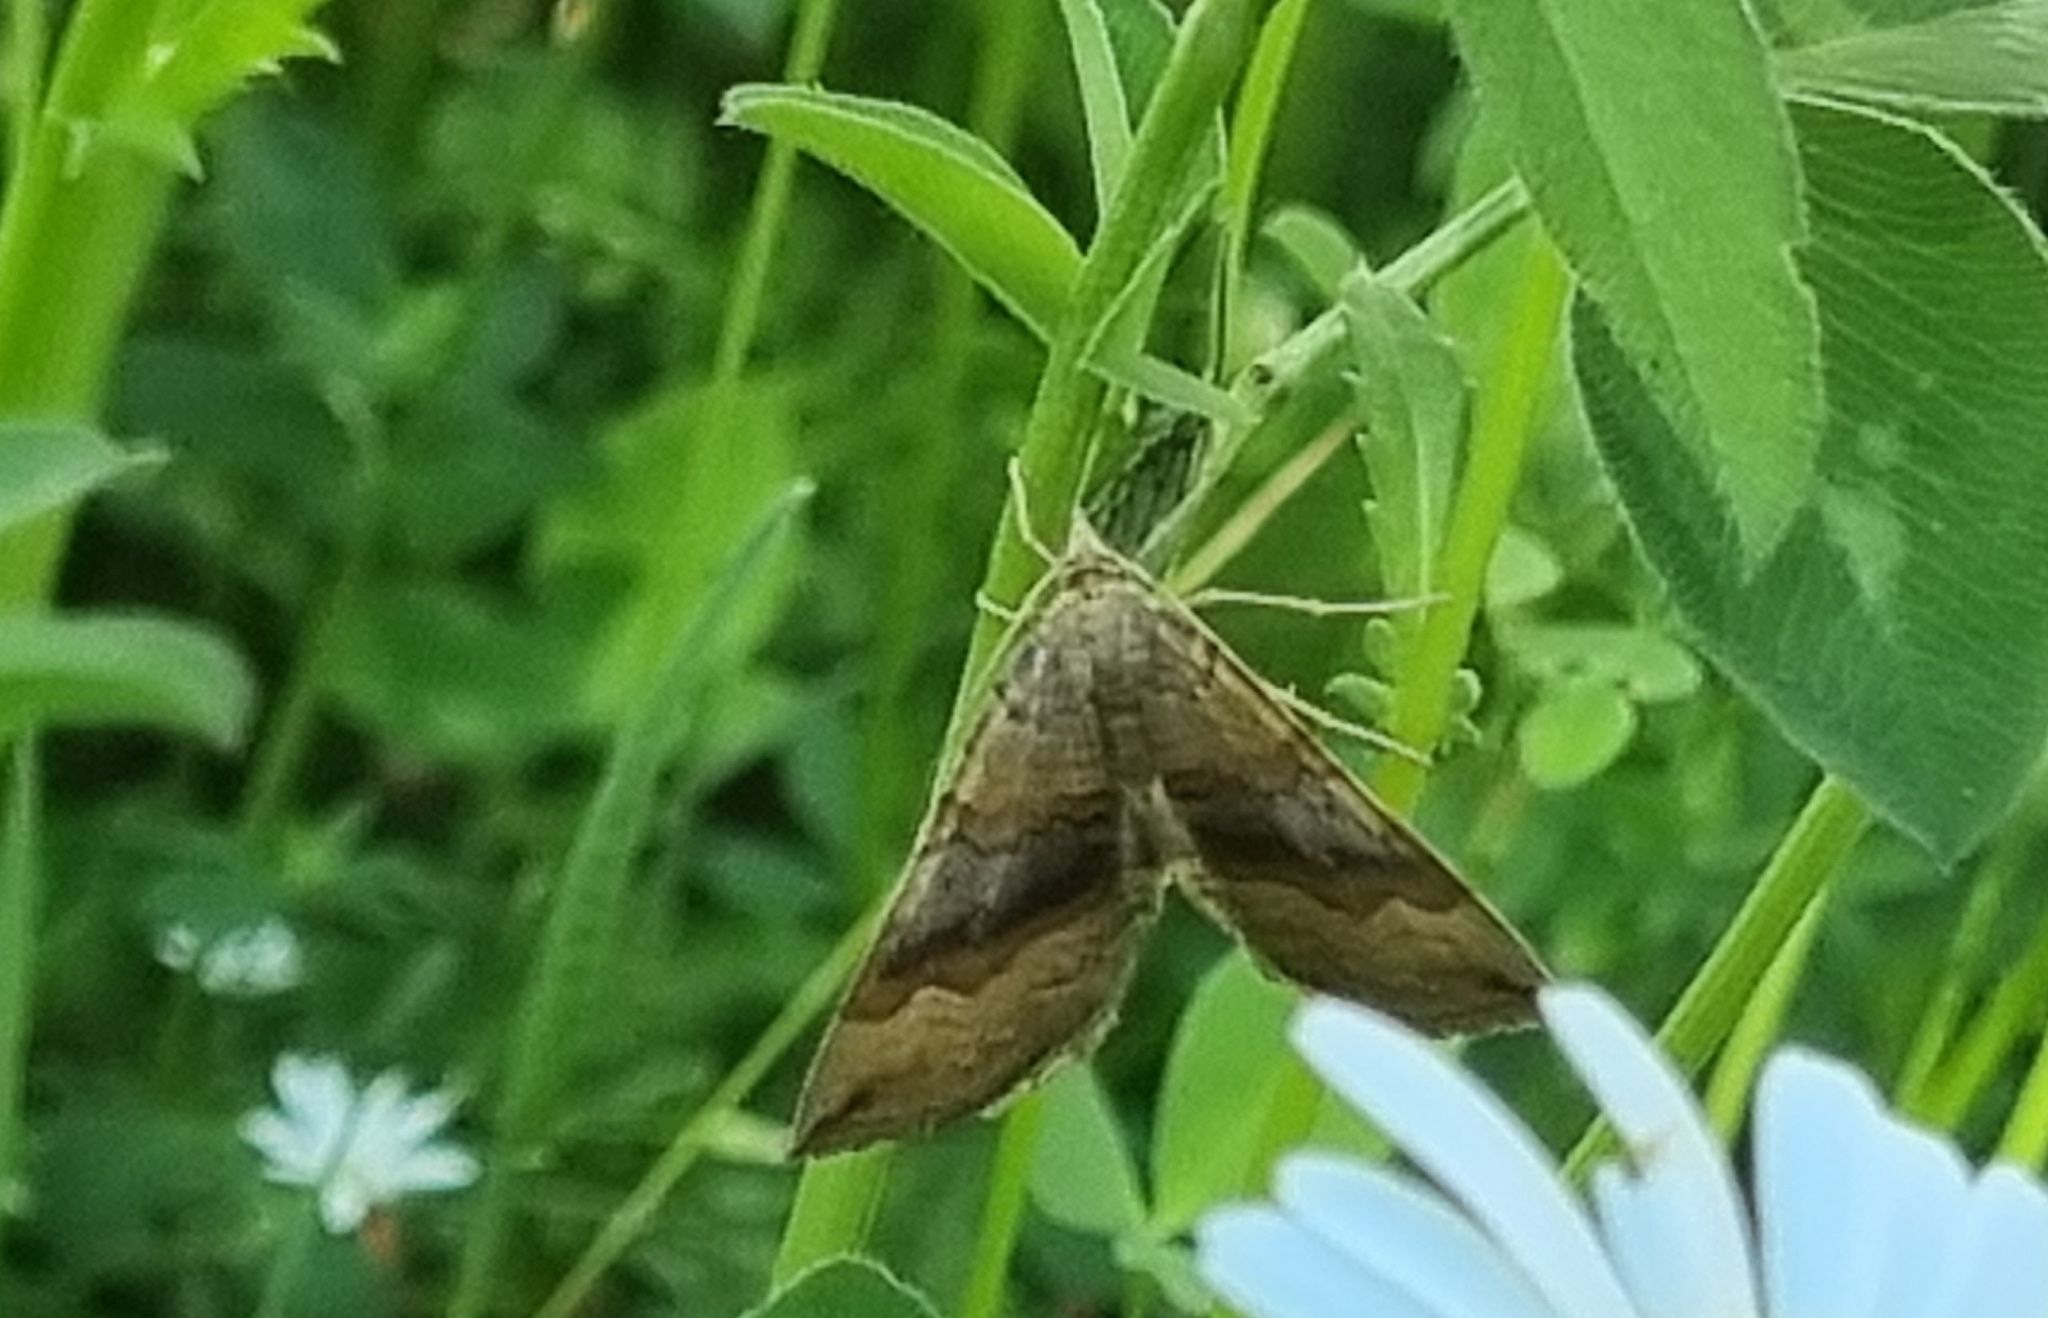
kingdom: Animalia
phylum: Arthropoda
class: Insecta
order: Lepidoptera
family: Geometridae
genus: Scotopteryx
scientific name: Scotopteryx chenopodiata
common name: Shaded broad-bar
